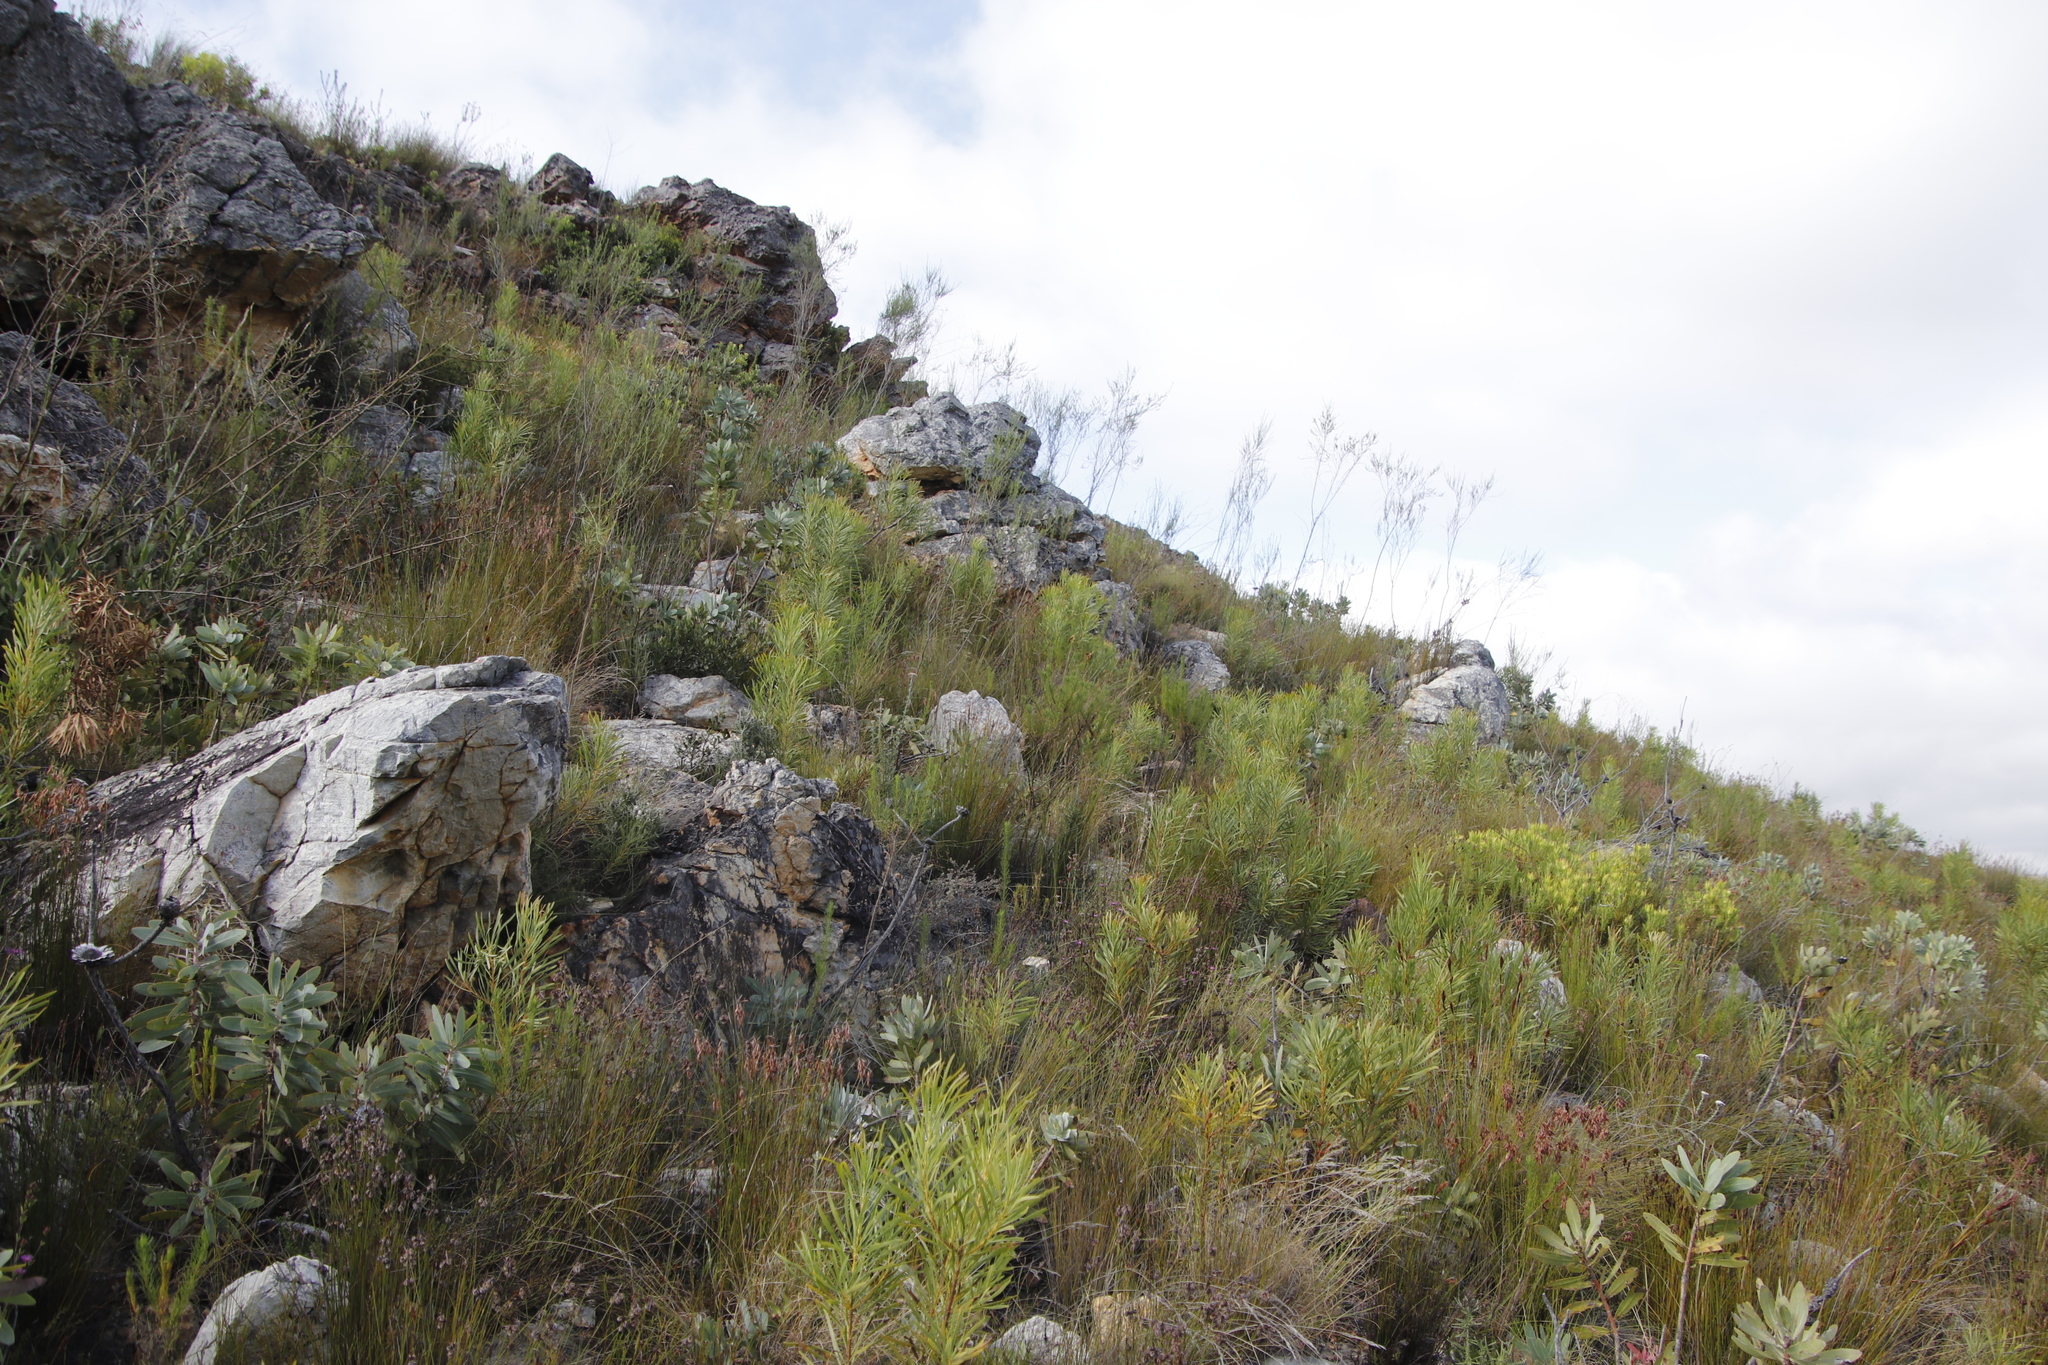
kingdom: Plantae
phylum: Tracheophyta
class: Magnoliopsida
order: Proteales
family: Proteaceae
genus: Protea
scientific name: Protea repens
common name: Sugarbush
